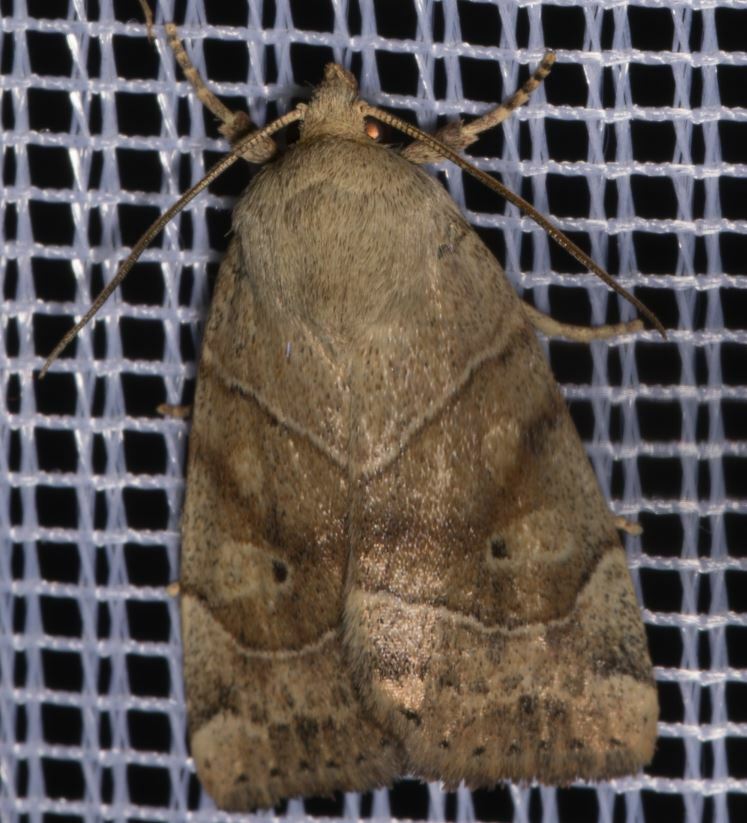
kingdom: Animalia
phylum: Arthropoda
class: Insecta
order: Lepidoptera
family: Noctuidae
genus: Cosmia
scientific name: Cosmia trapezina
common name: Dun-bar
